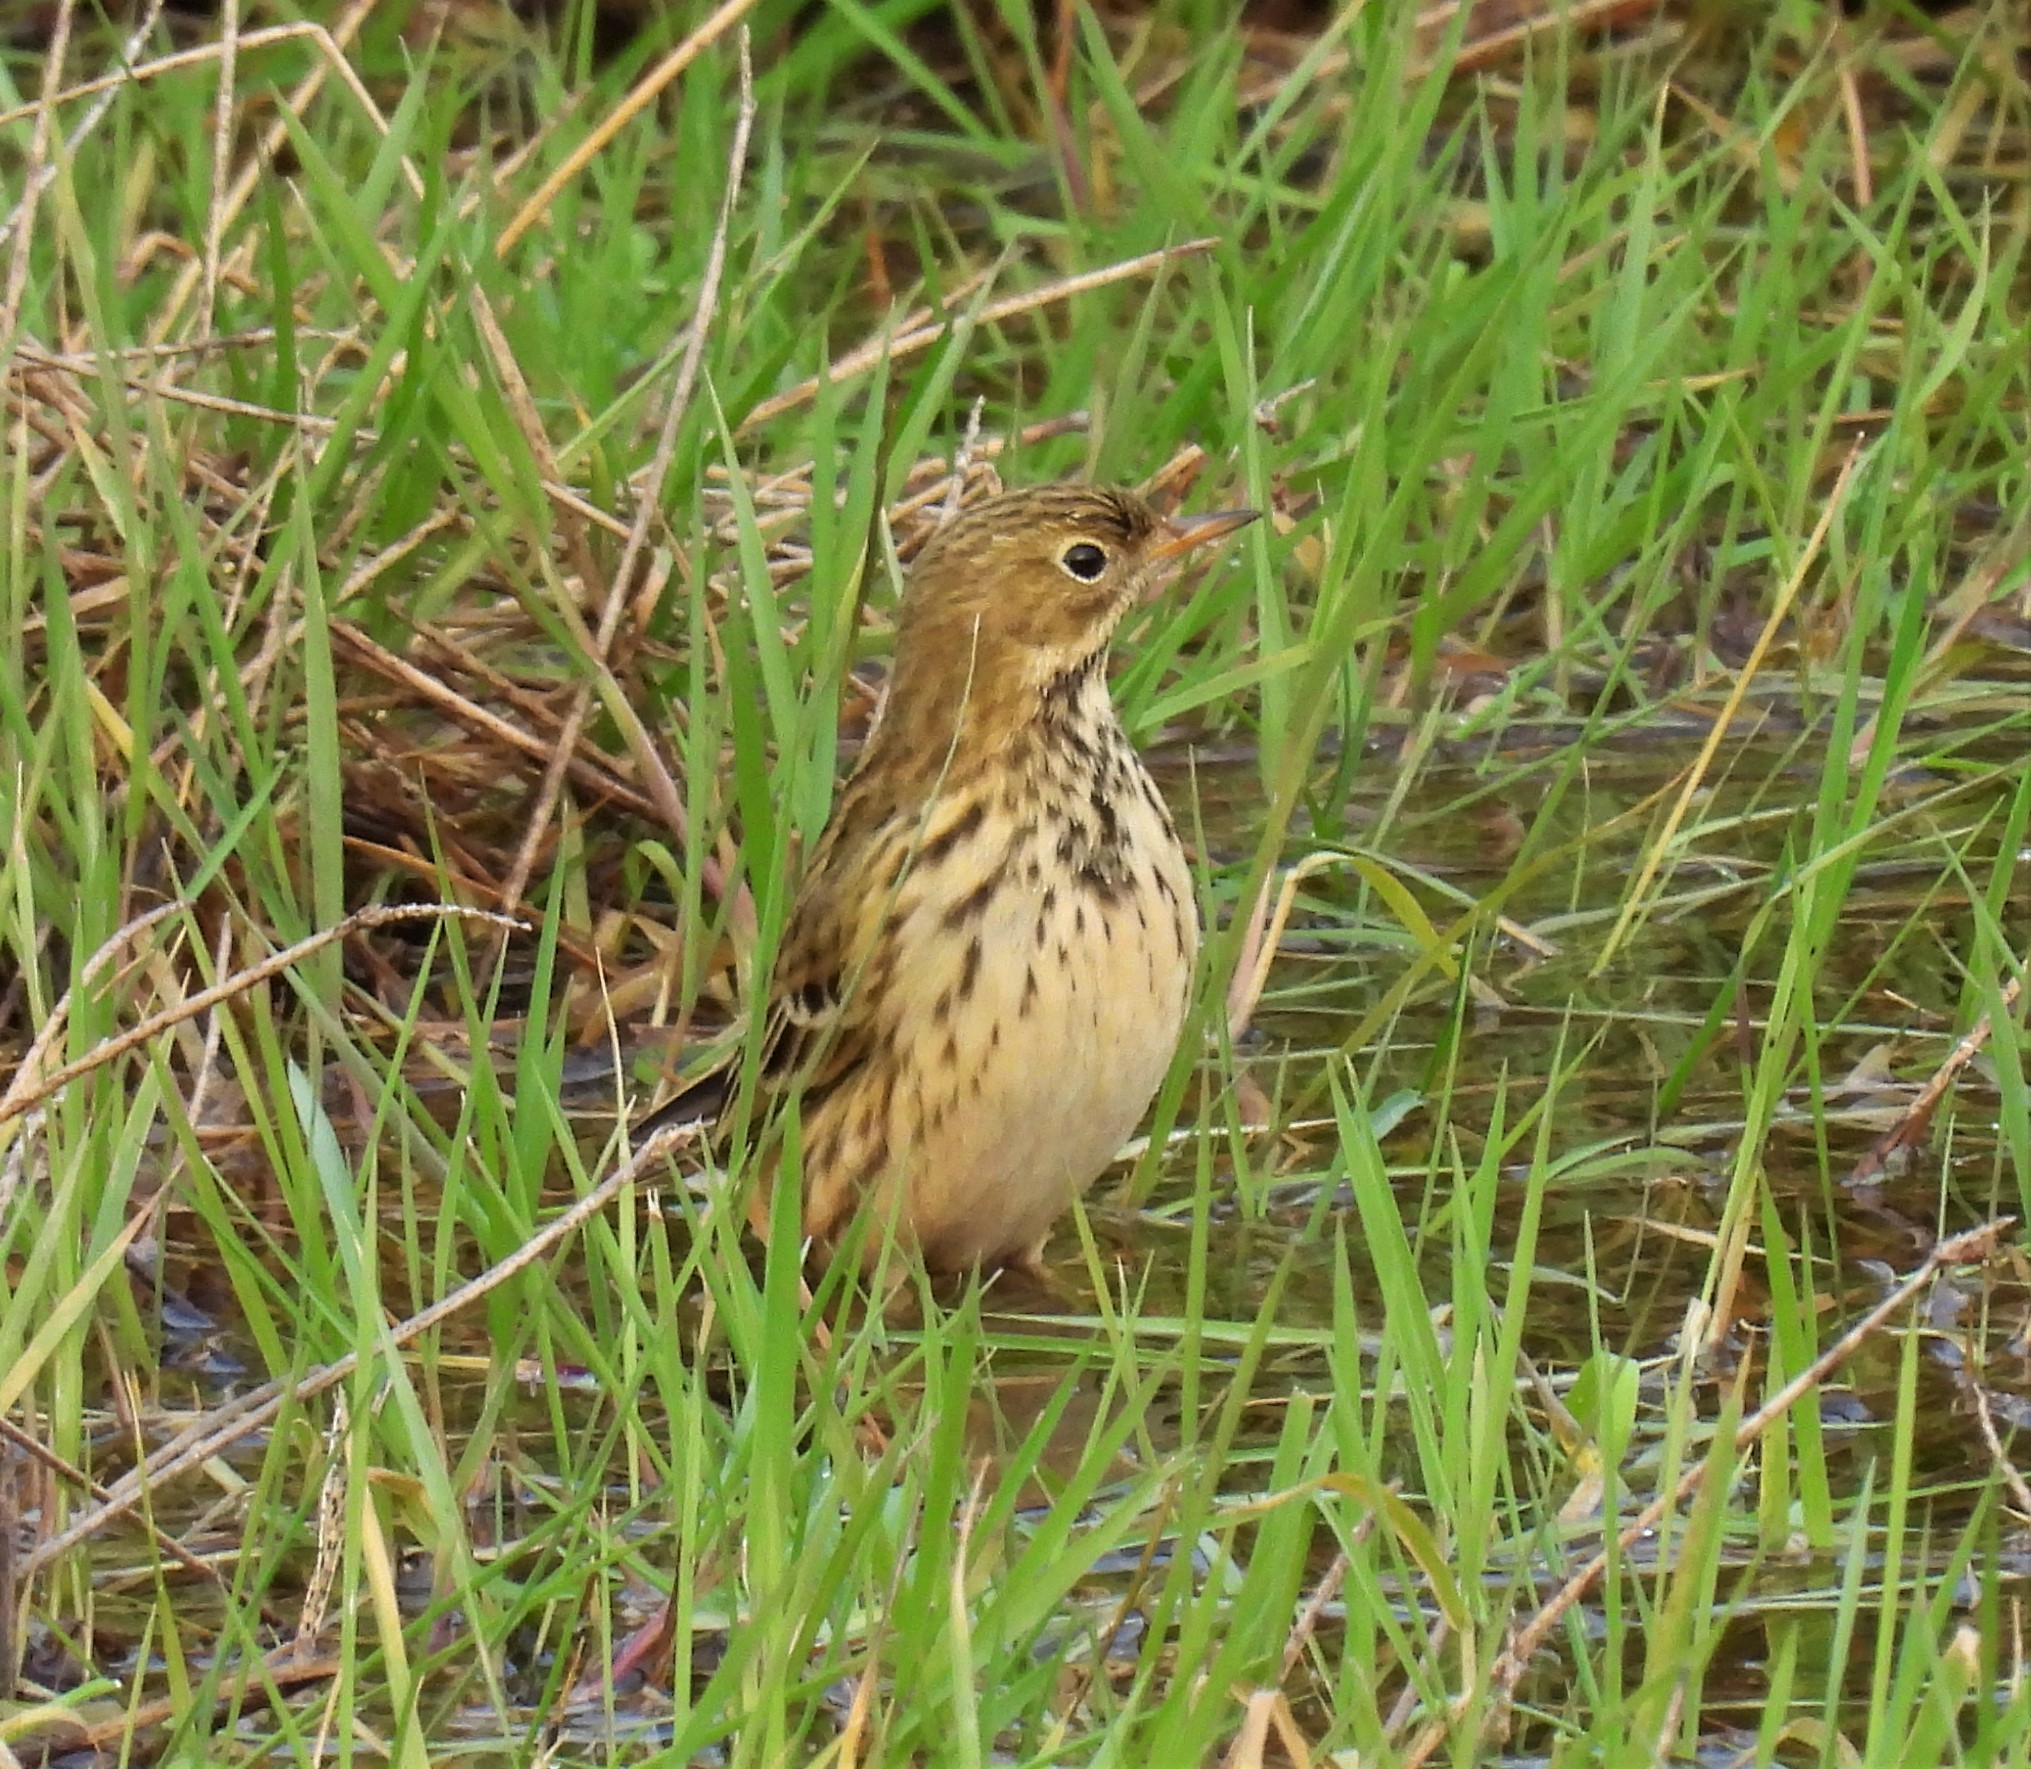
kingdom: Animalia
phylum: Chordata
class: Aves
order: Passeriformes
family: Motacillidae
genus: Anthus
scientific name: Anthus pratensis
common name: Meadow pipit
